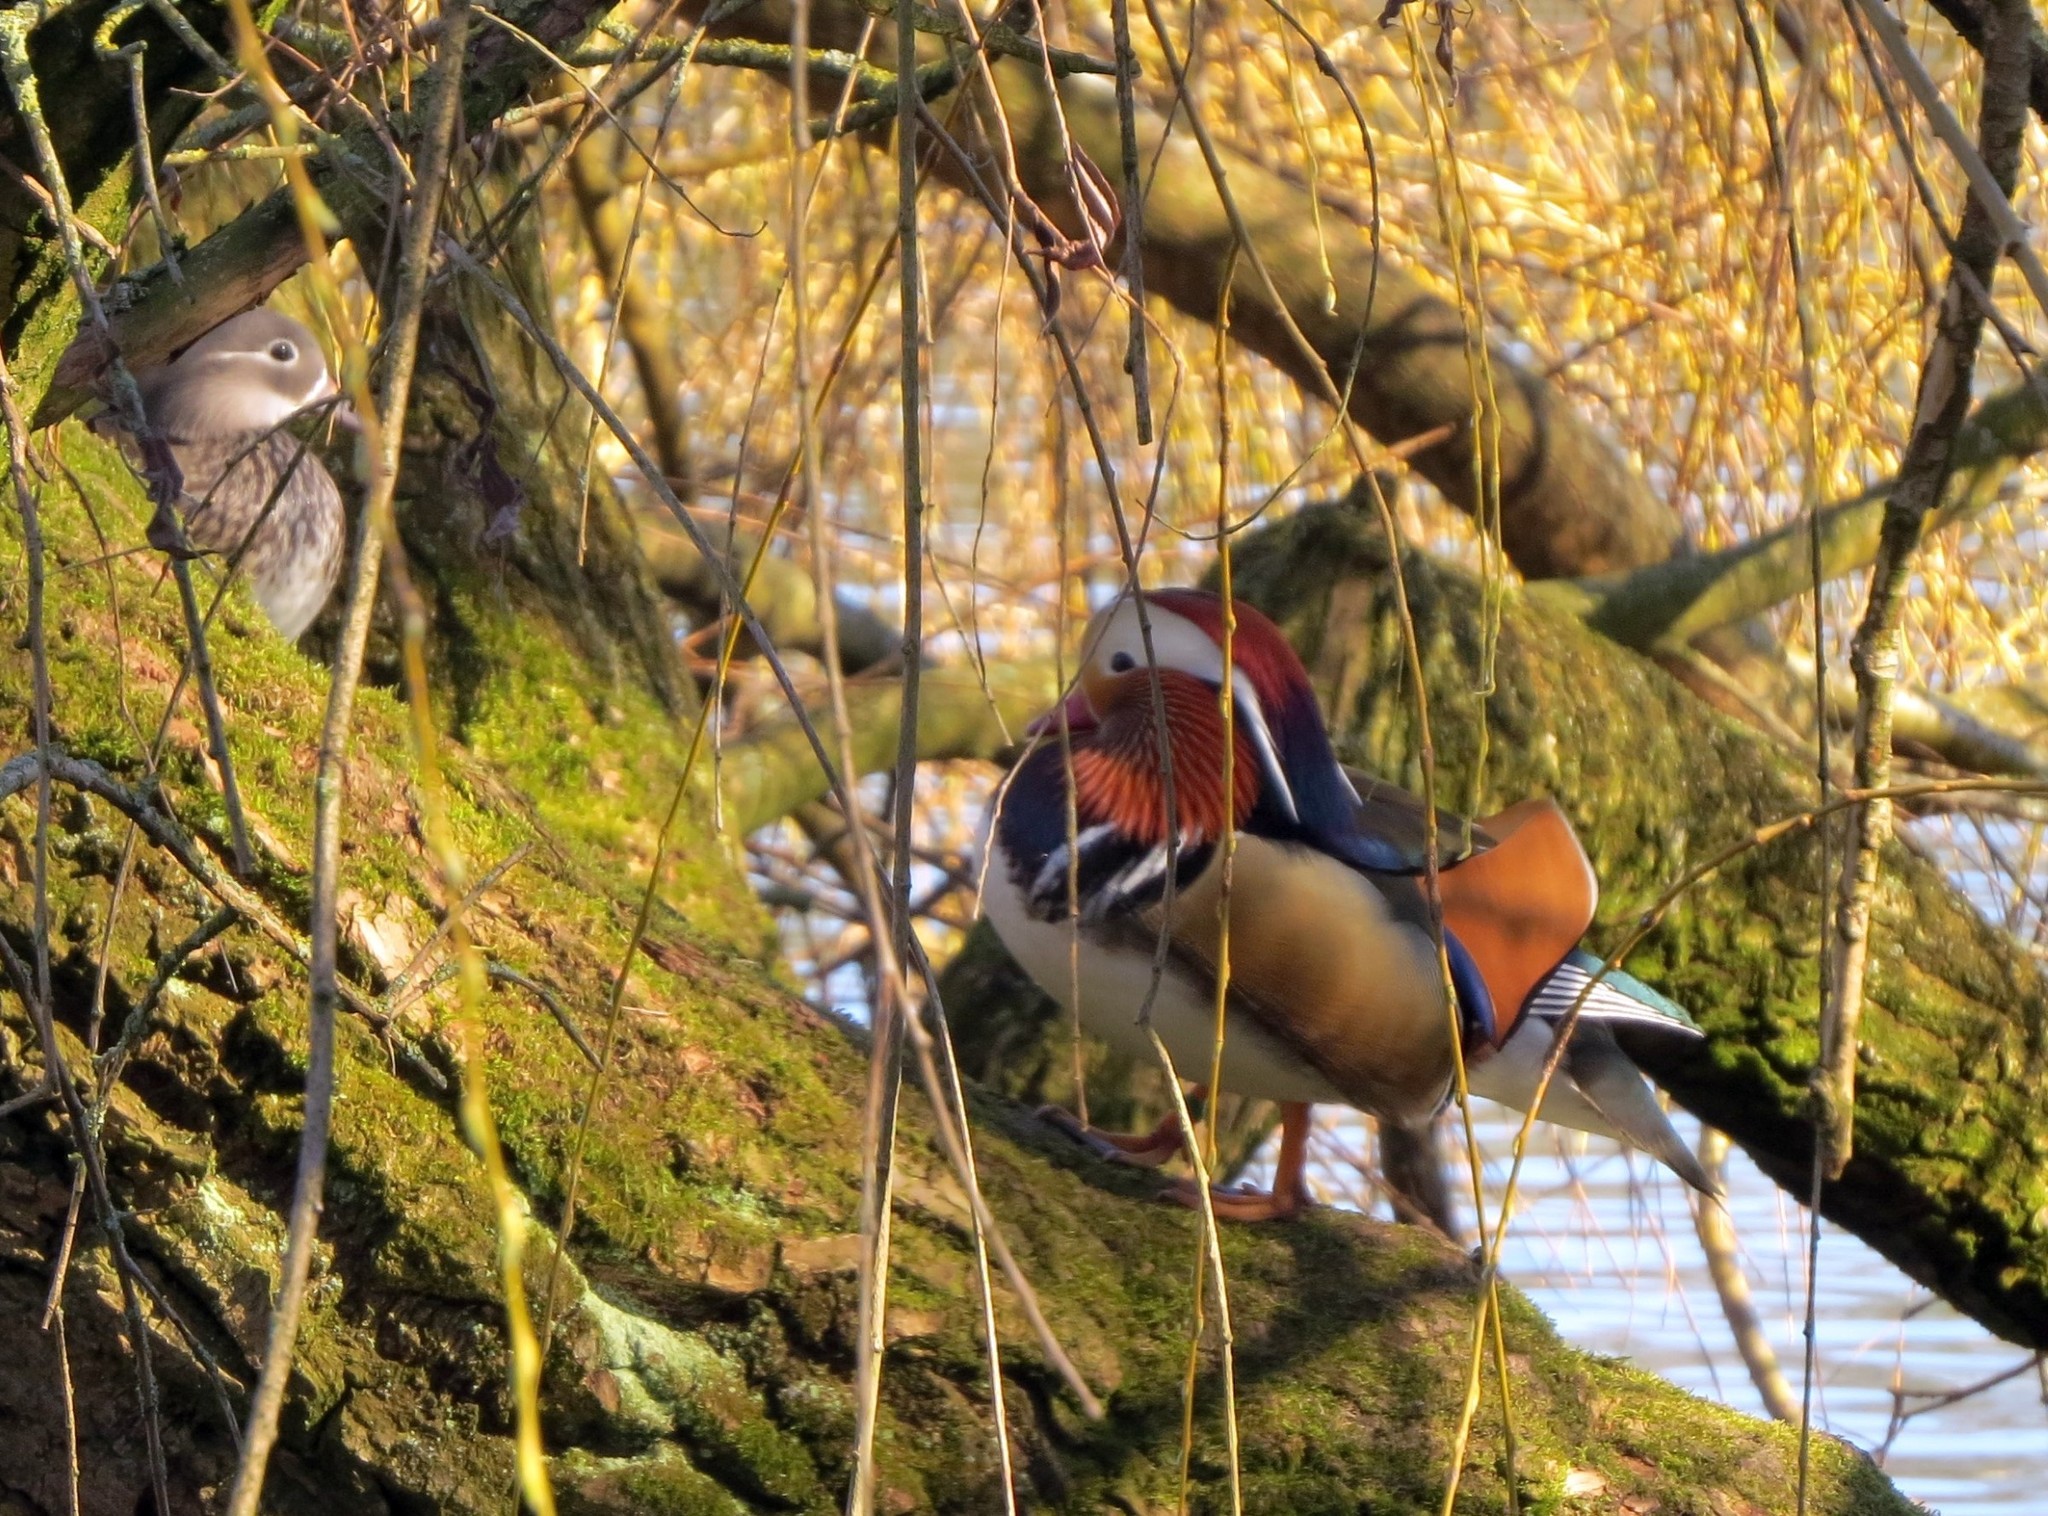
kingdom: Animalia
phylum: Chordata
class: Aves
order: Anseriformes
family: Anatidae
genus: Aix
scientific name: Aix galericulata
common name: Mandarin duck
